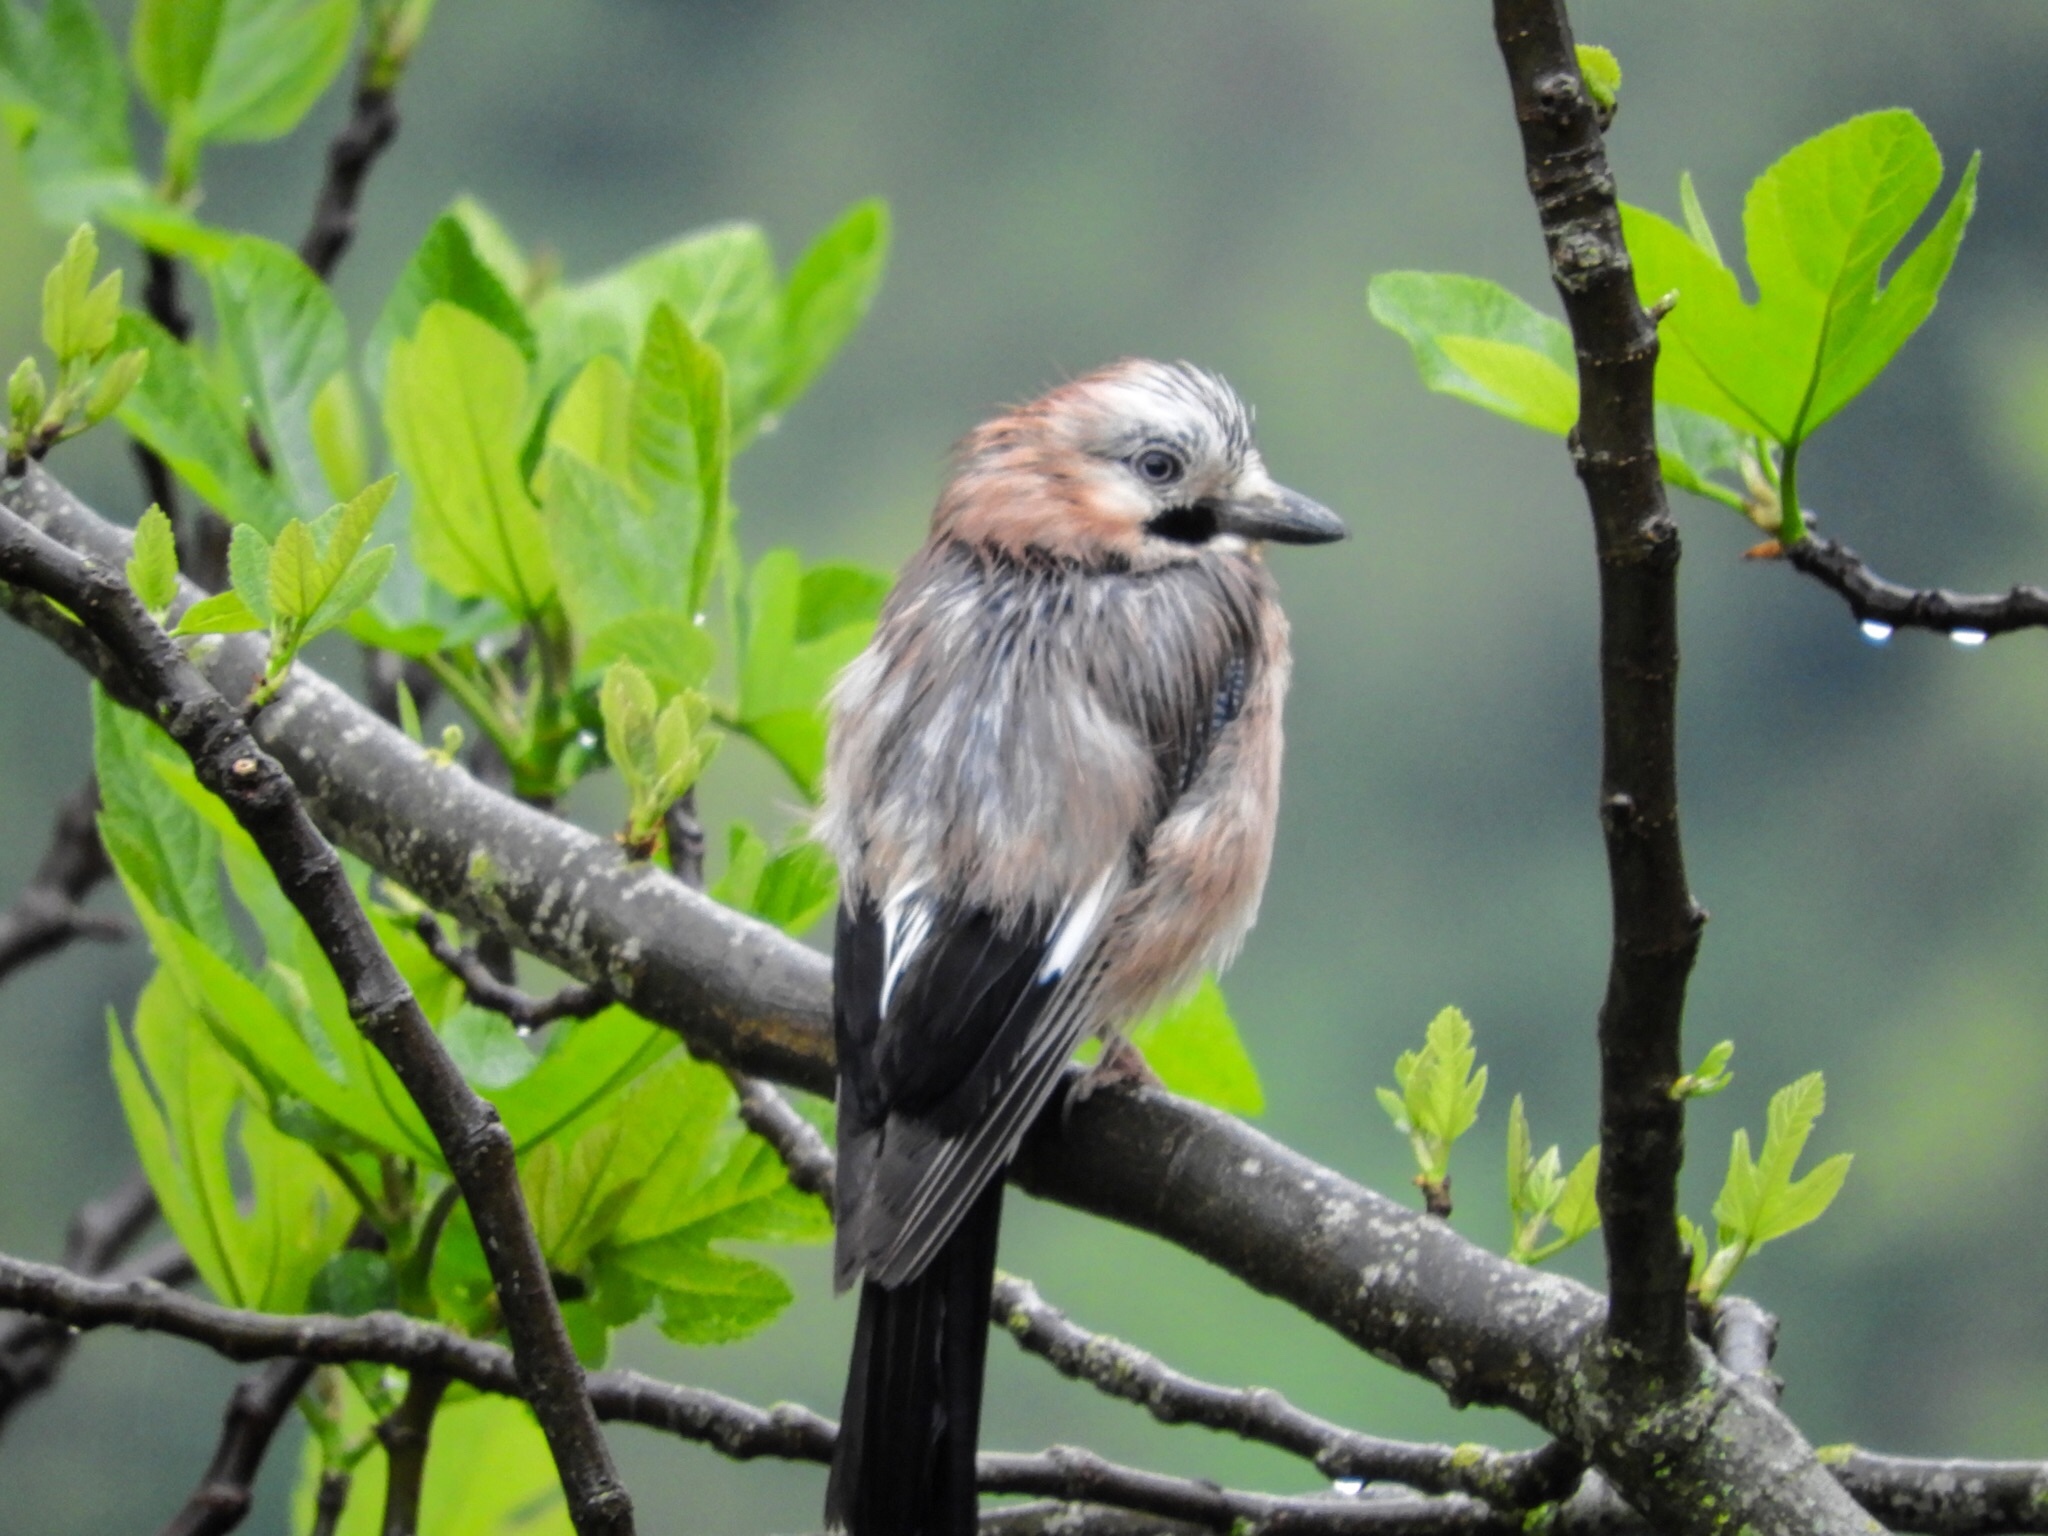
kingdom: Animalia
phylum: Chordata
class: Aves
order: Passeriformes
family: Corvidae
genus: Garrulus
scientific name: Garrulus glandarius
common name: Eurasian jay
